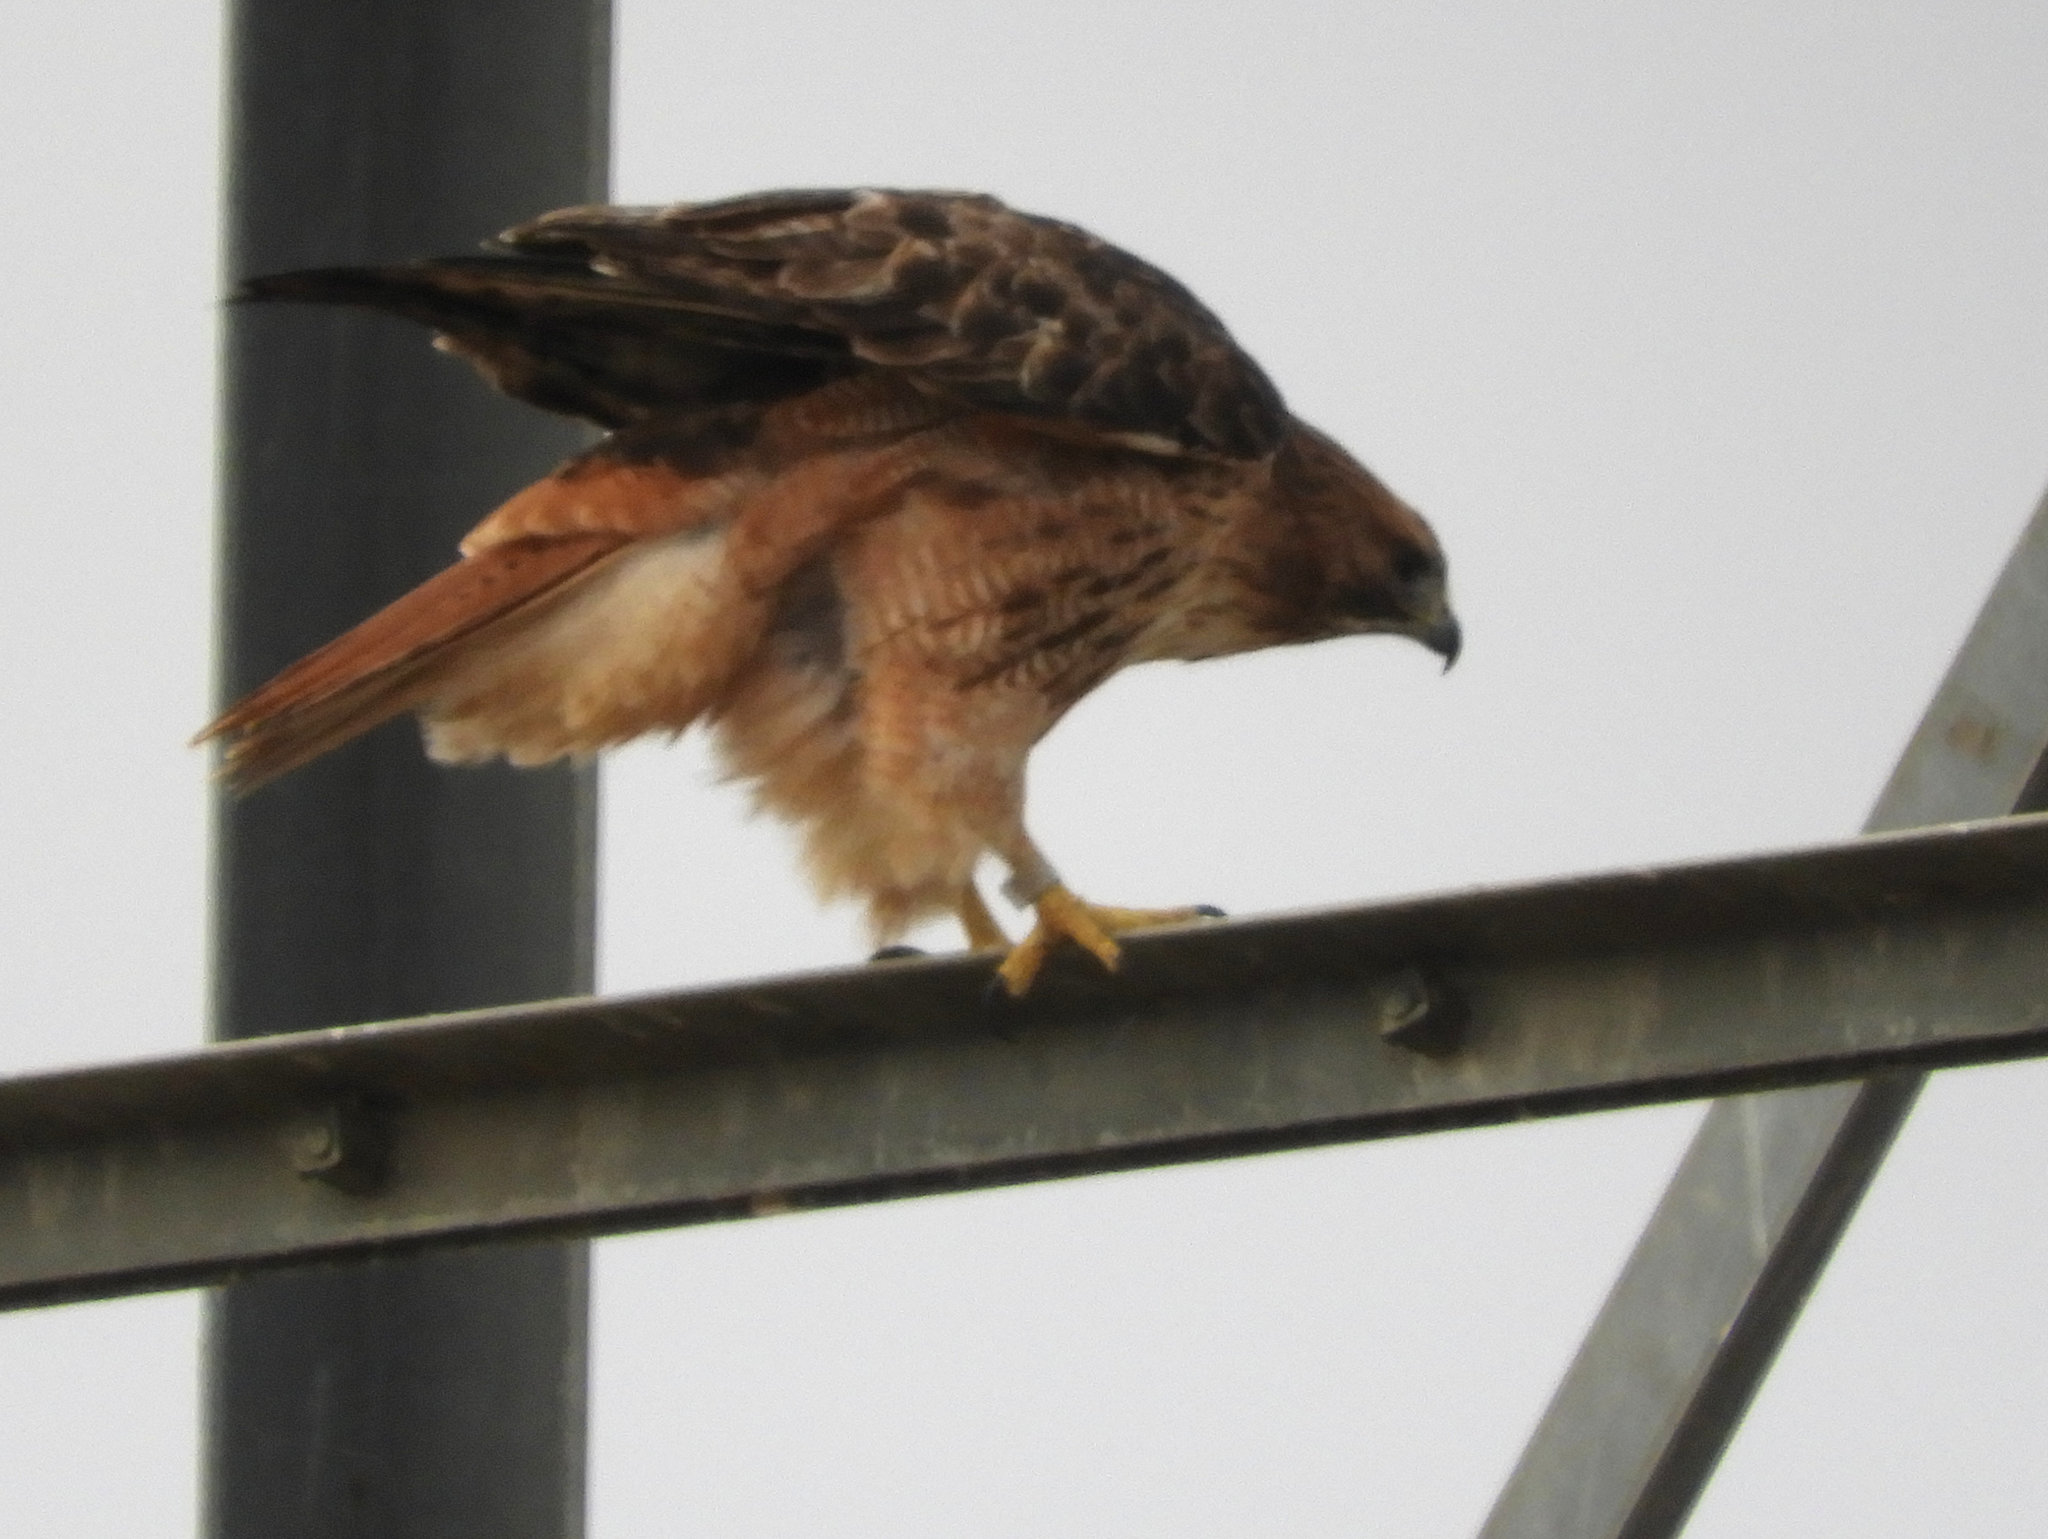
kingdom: Animalia
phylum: Chordata
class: Aves
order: Accipitriformes
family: Accipitridae
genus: Buteo
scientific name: Buteo jamaicensis
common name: Red-tailed hawk
